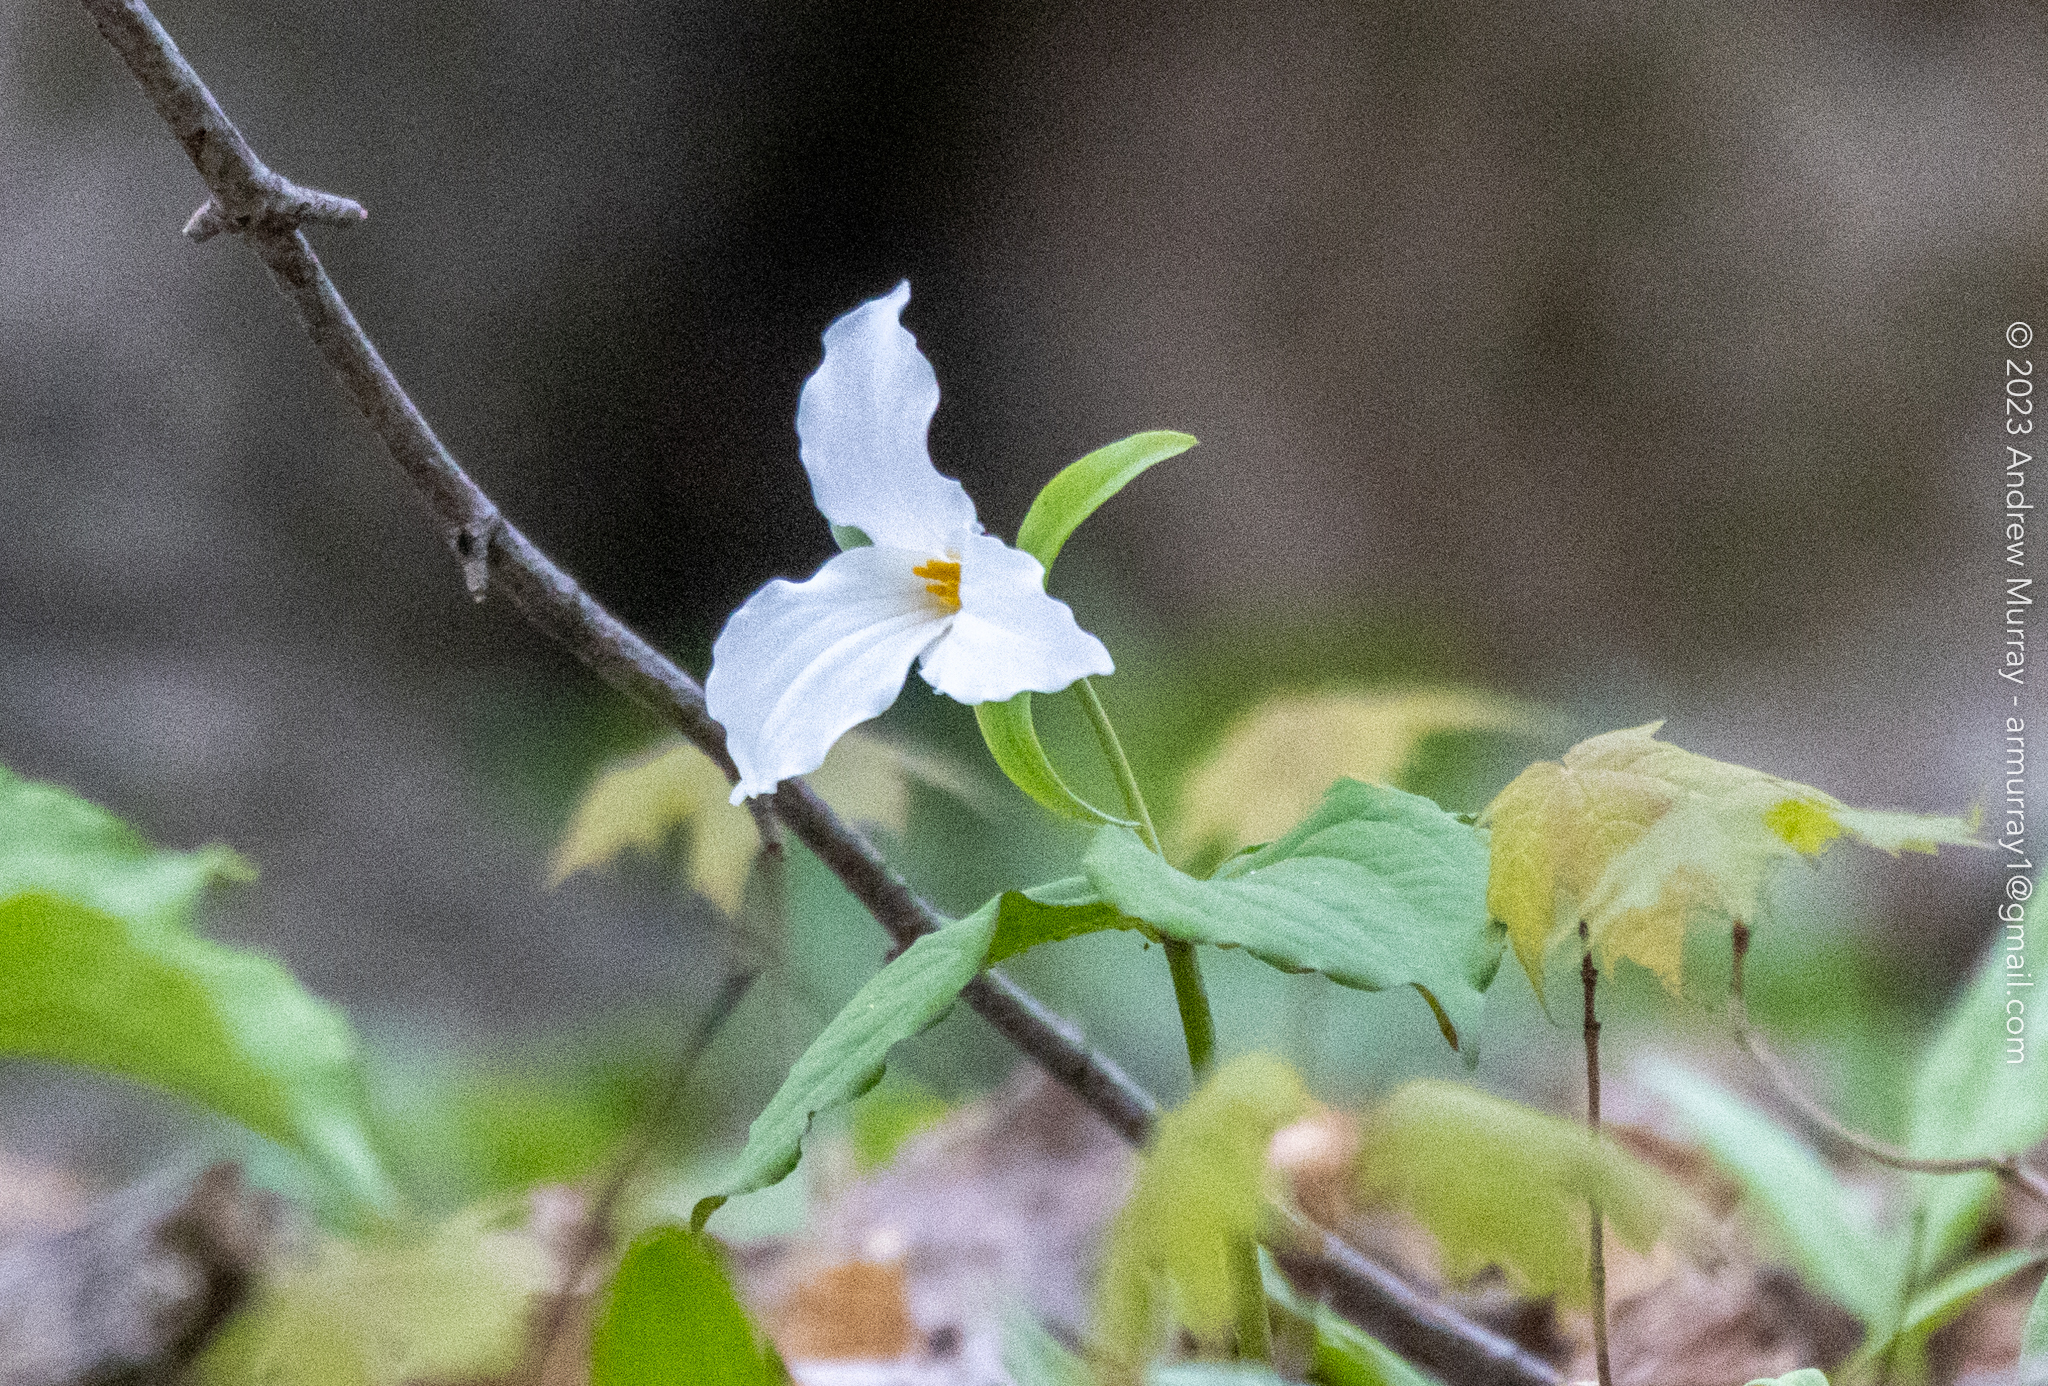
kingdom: Plantae
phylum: Tracheophyta
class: Liliopsida
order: Liliales
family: Melanthiaceae
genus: Trillium
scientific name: Trillium grandiflorum
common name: Great white trillium
